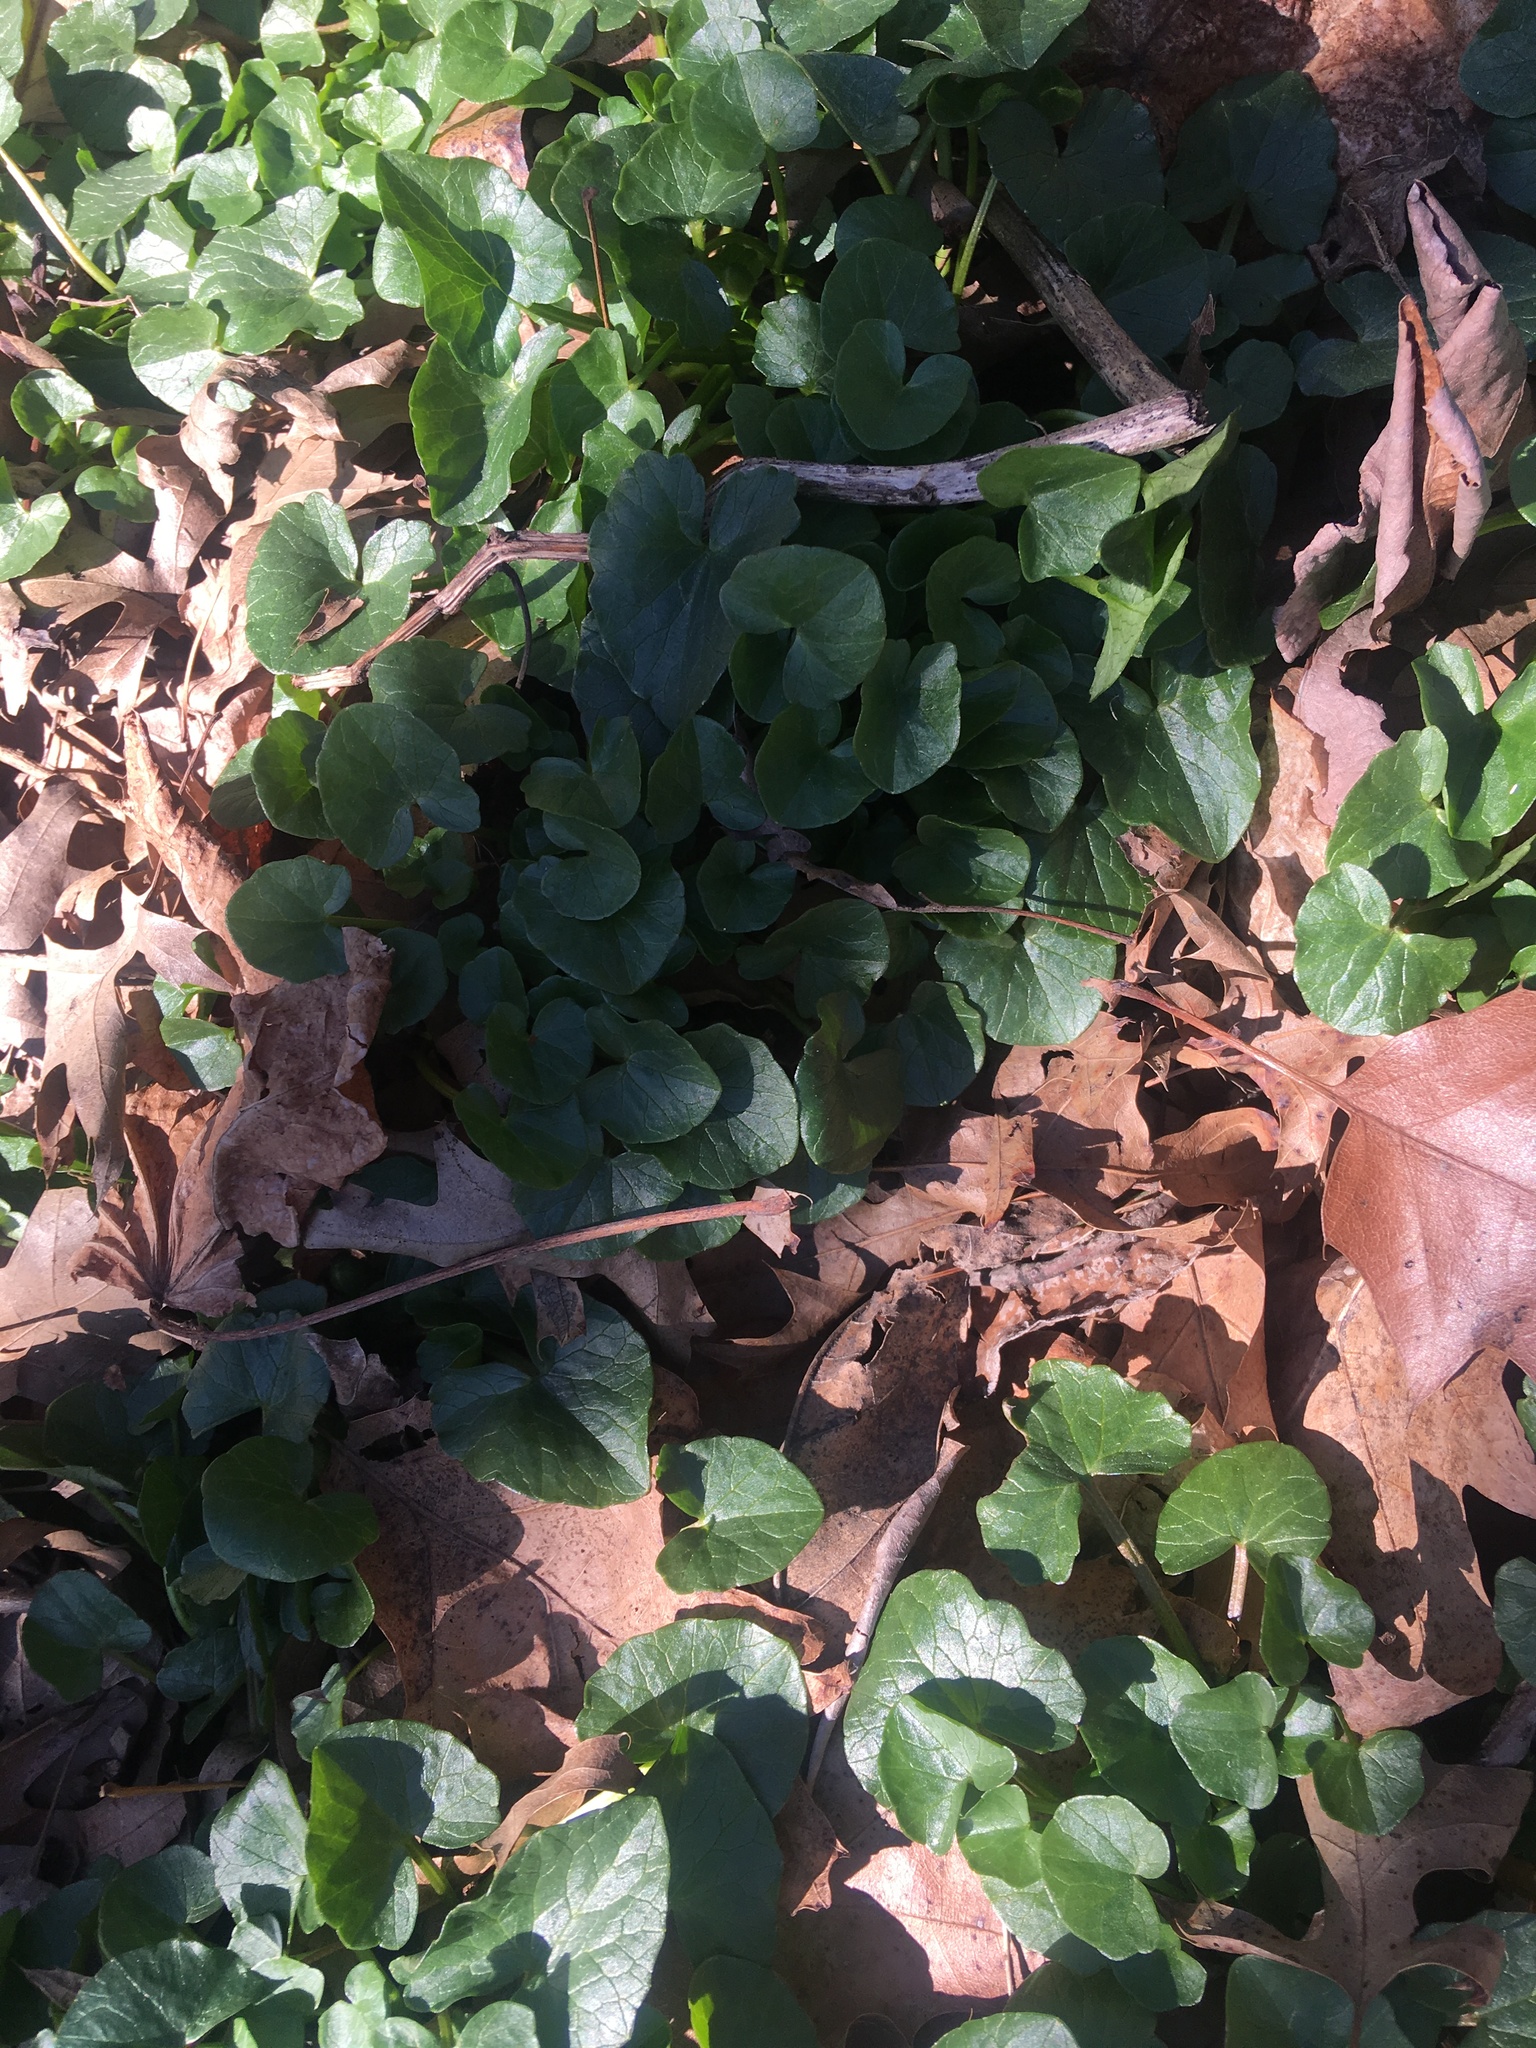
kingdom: Plantae
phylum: Tracheophyta
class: Magnoliopsida
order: Ranunculales
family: Ranunculaceae
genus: Ficaria
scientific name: Ficaria verna
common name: Lesser celandine
